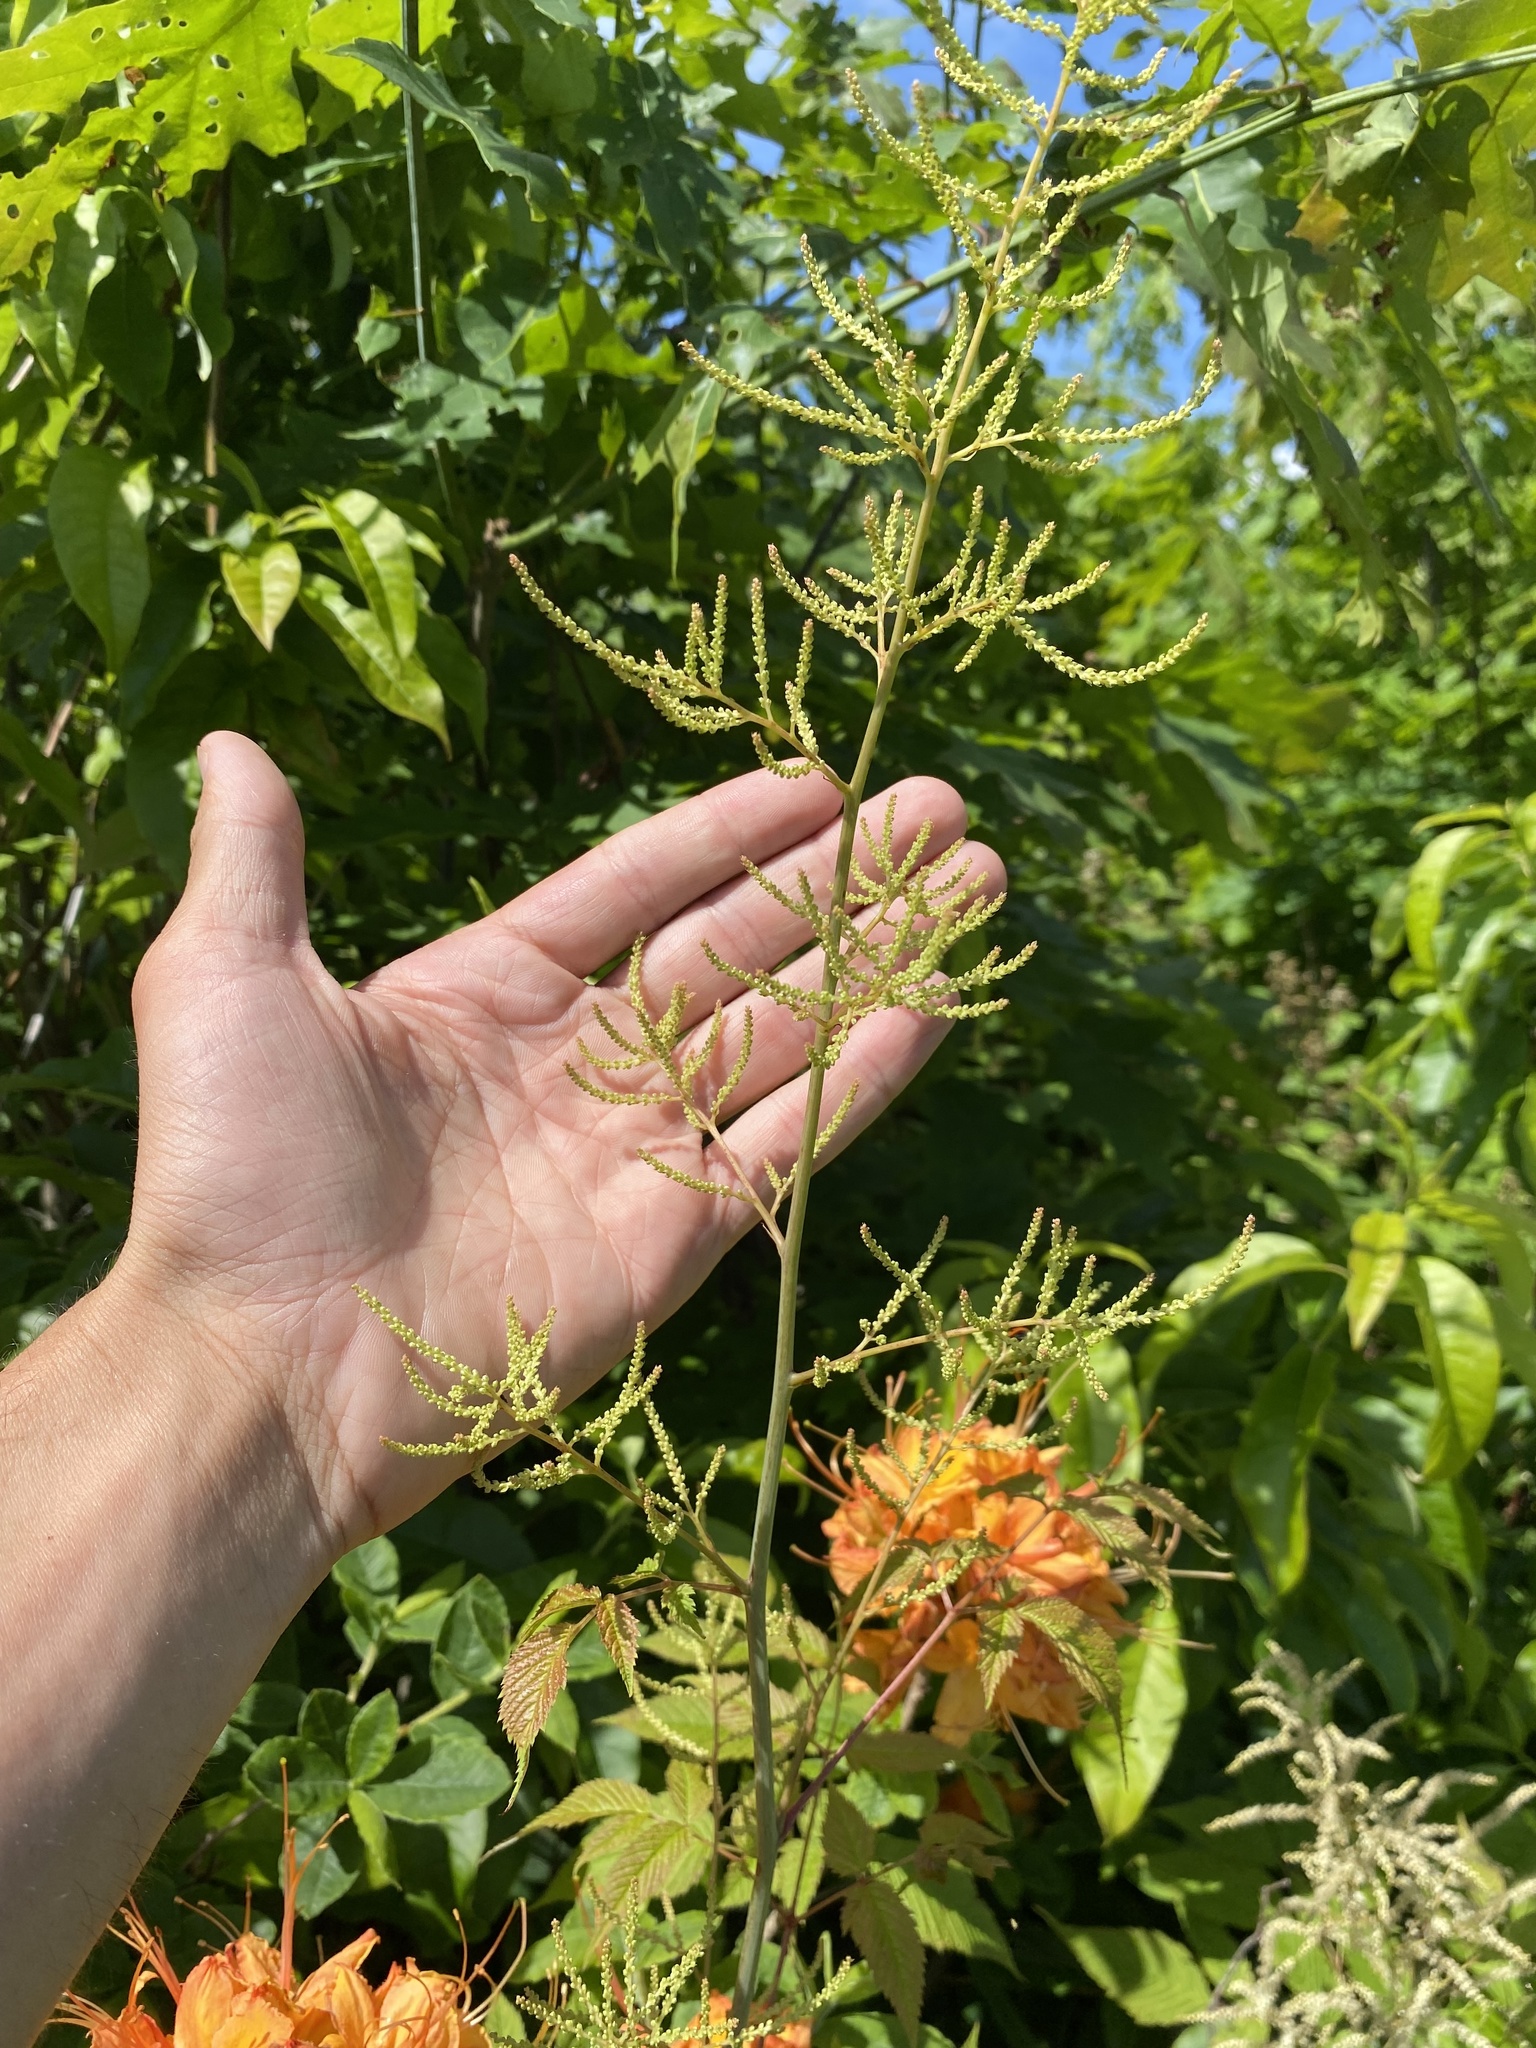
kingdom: Plantae
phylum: Tracheophyta
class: Magnoliopsida
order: Rosales
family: Rosaceae
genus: Aruncus
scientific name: Aruncus dioicus
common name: Buck's-beard
